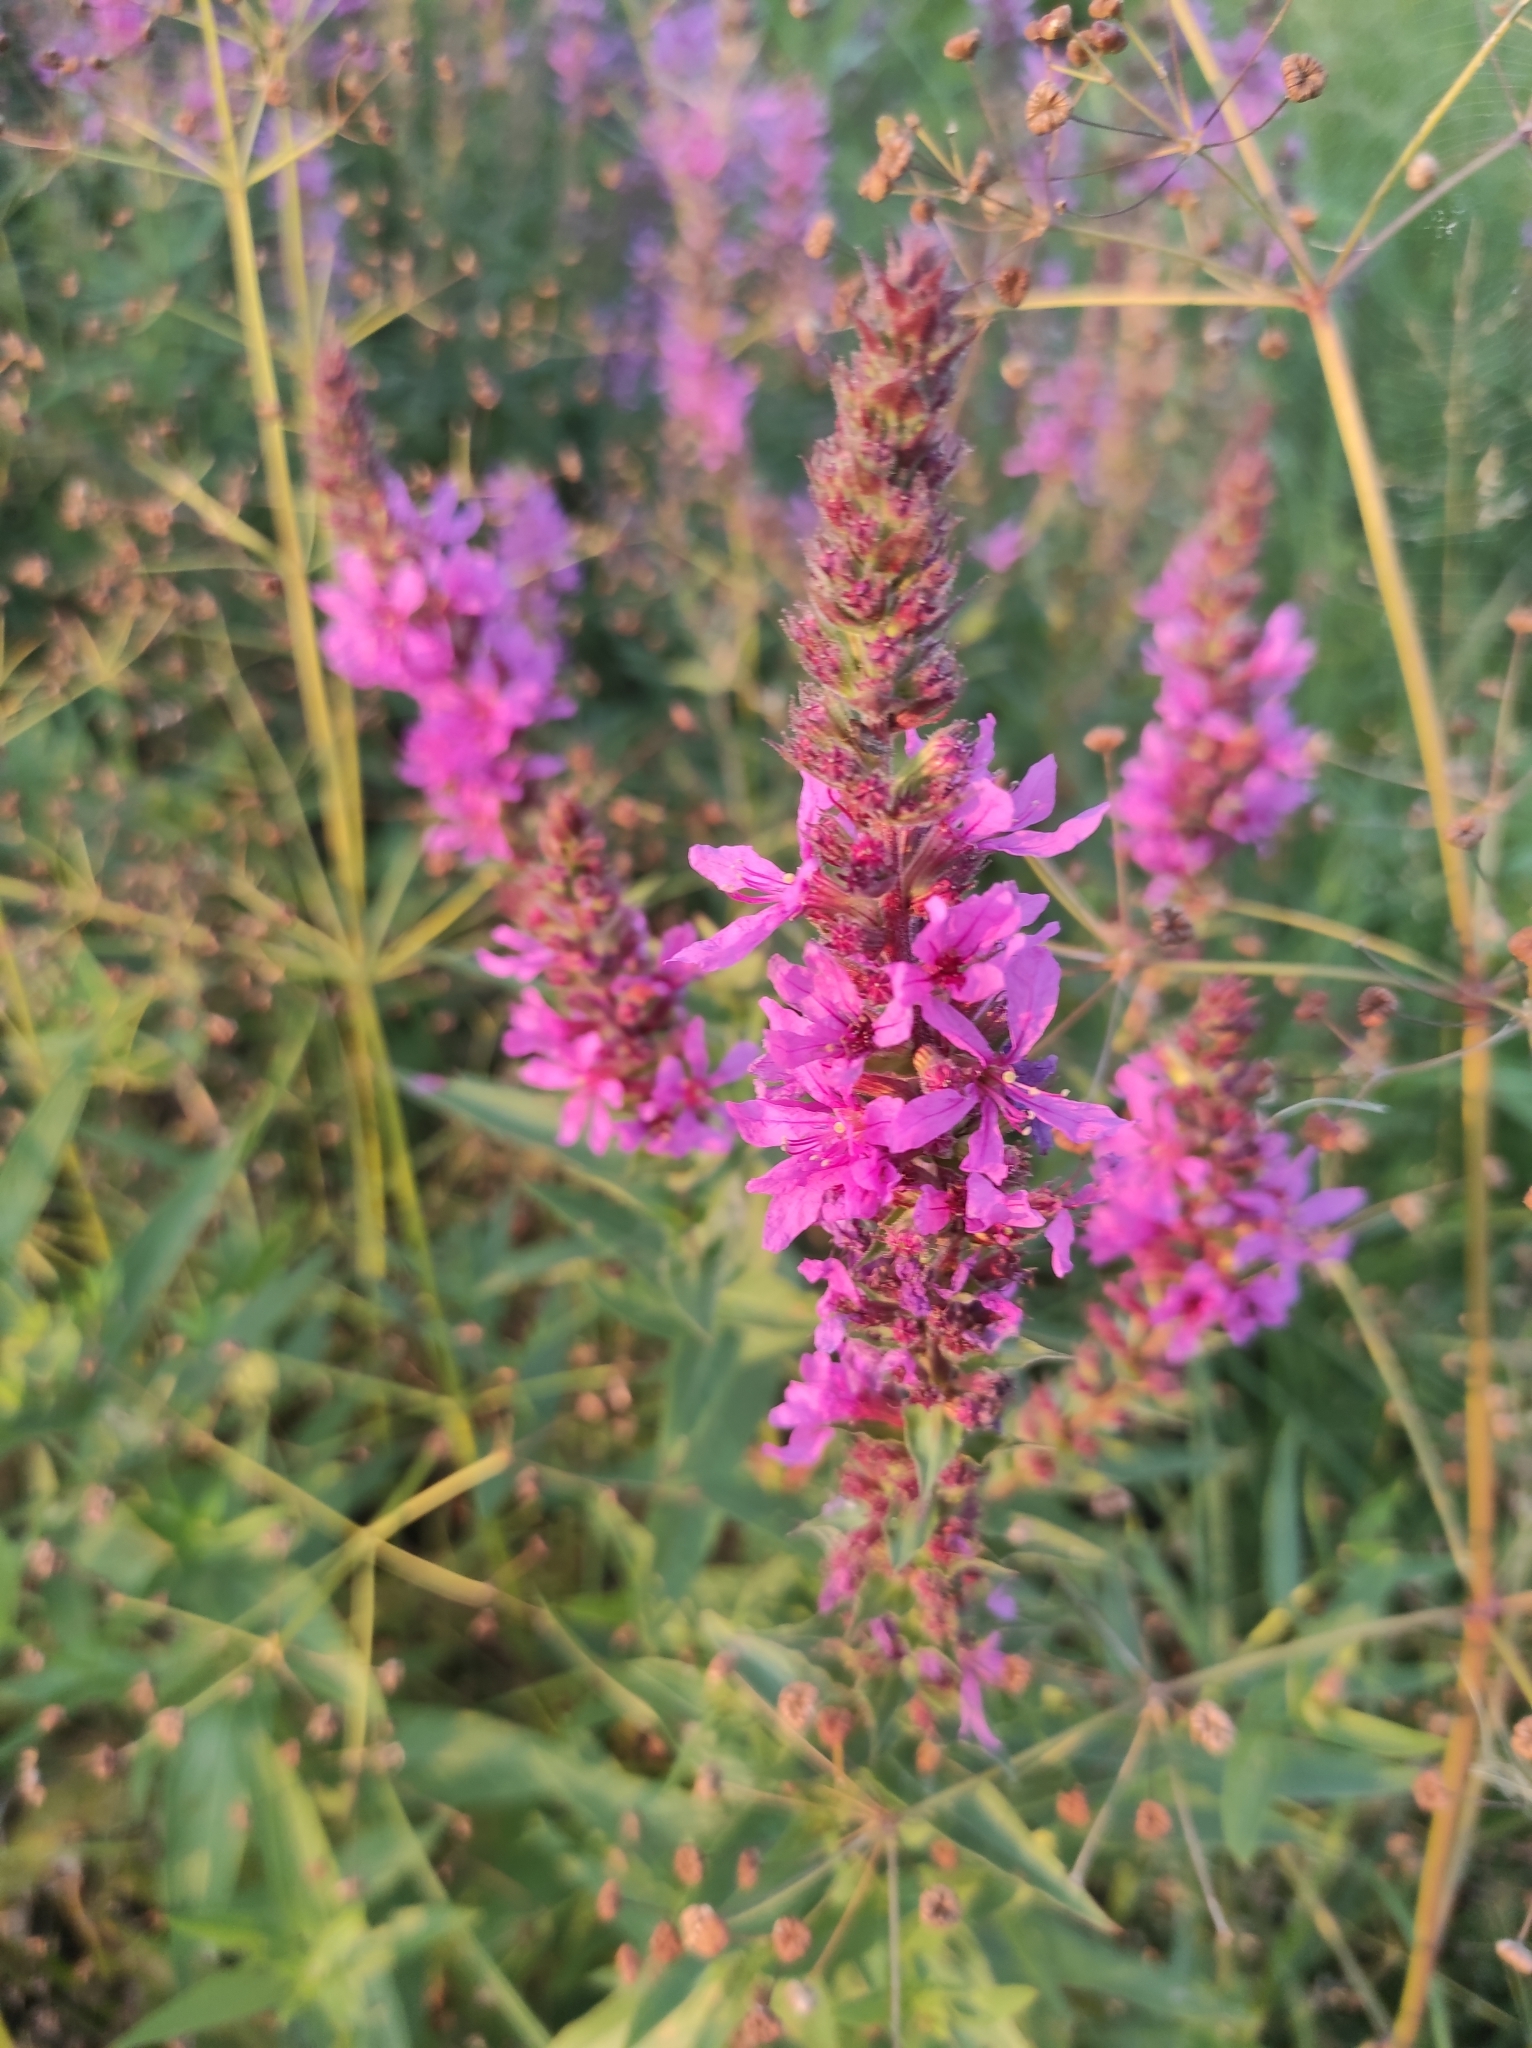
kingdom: Plantae
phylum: Tracheophyta
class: Magnoliopsida
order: Myrtales
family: Lythraceae
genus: Lythrum
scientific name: Lythrum salicaria
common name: Purple loosestrife
